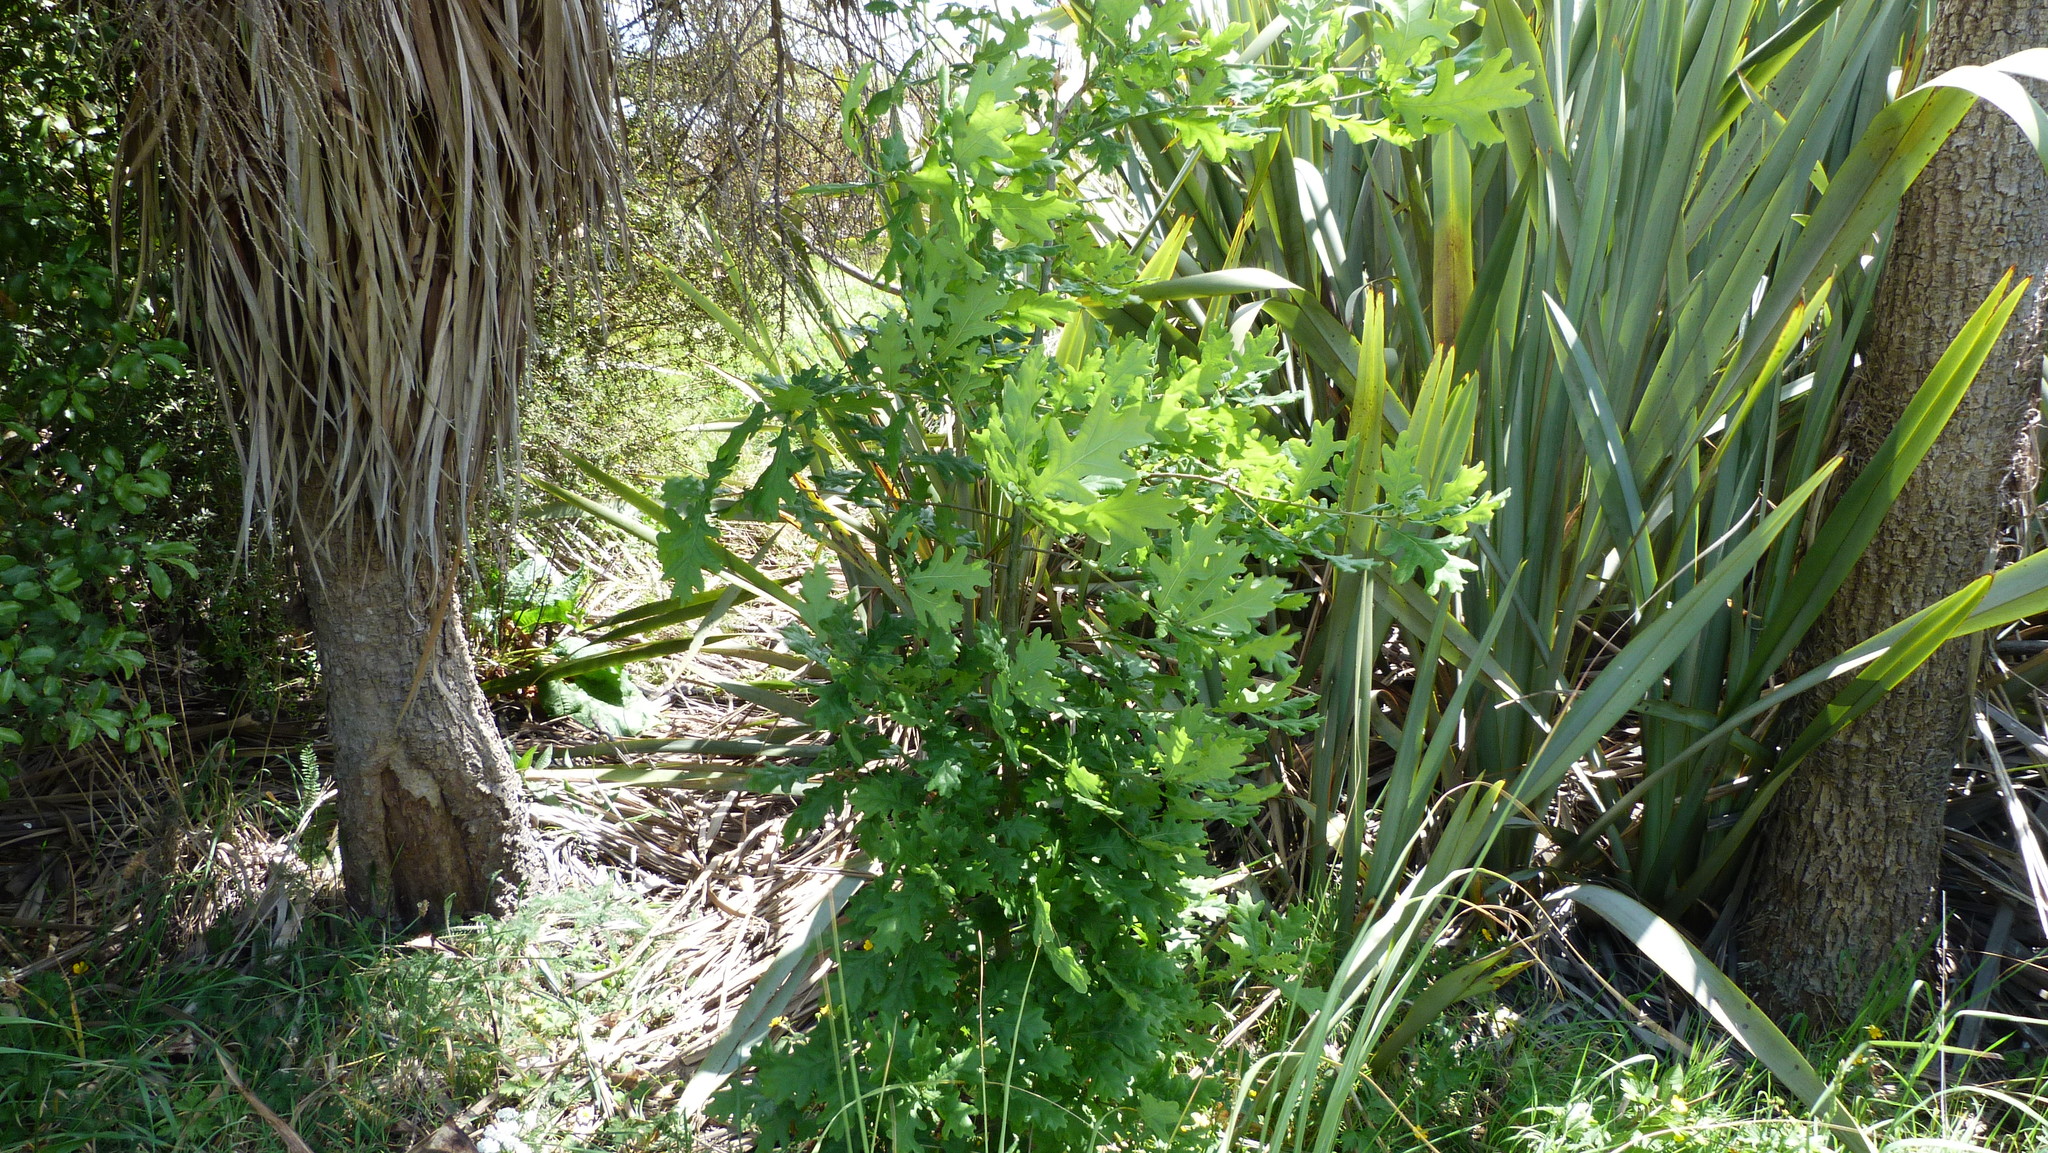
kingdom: Plantae
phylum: Tracheophyta
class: Magnoliopsida
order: Fagales
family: Fagaceae
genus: Quercus
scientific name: Quercus robur
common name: Pedunculate oak
